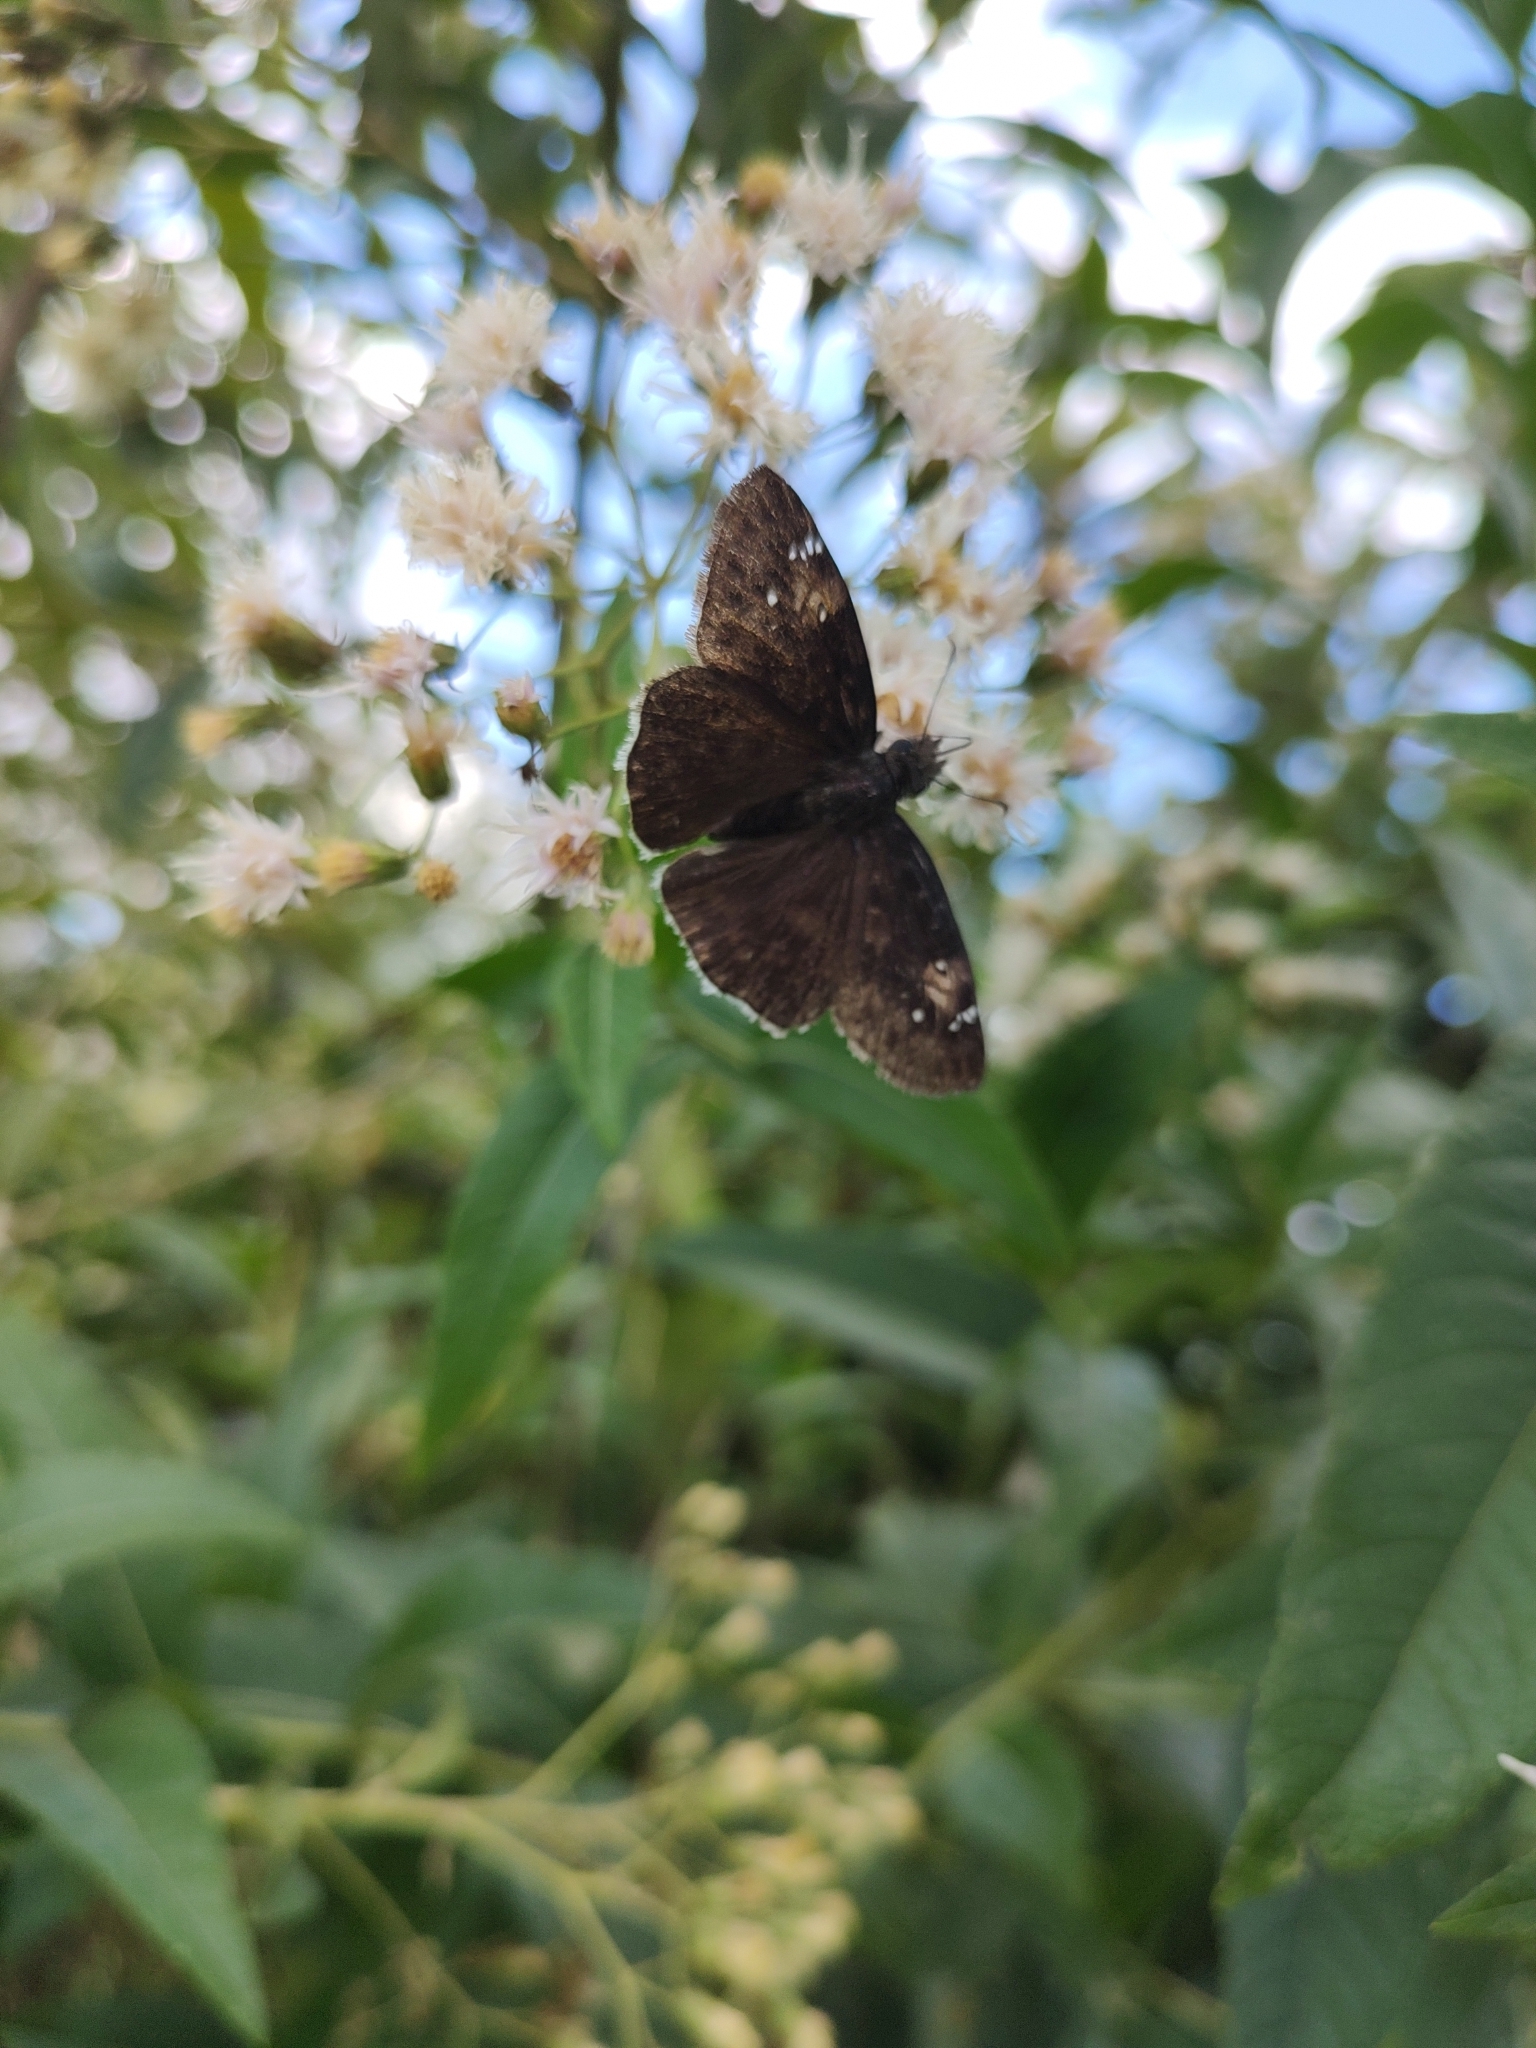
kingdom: Animalia
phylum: Arthropoda
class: Insecta
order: Lepidoptera
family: Hesperiidae
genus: Erynnis
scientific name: Erynnis funeralis
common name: Funereal duskywing
